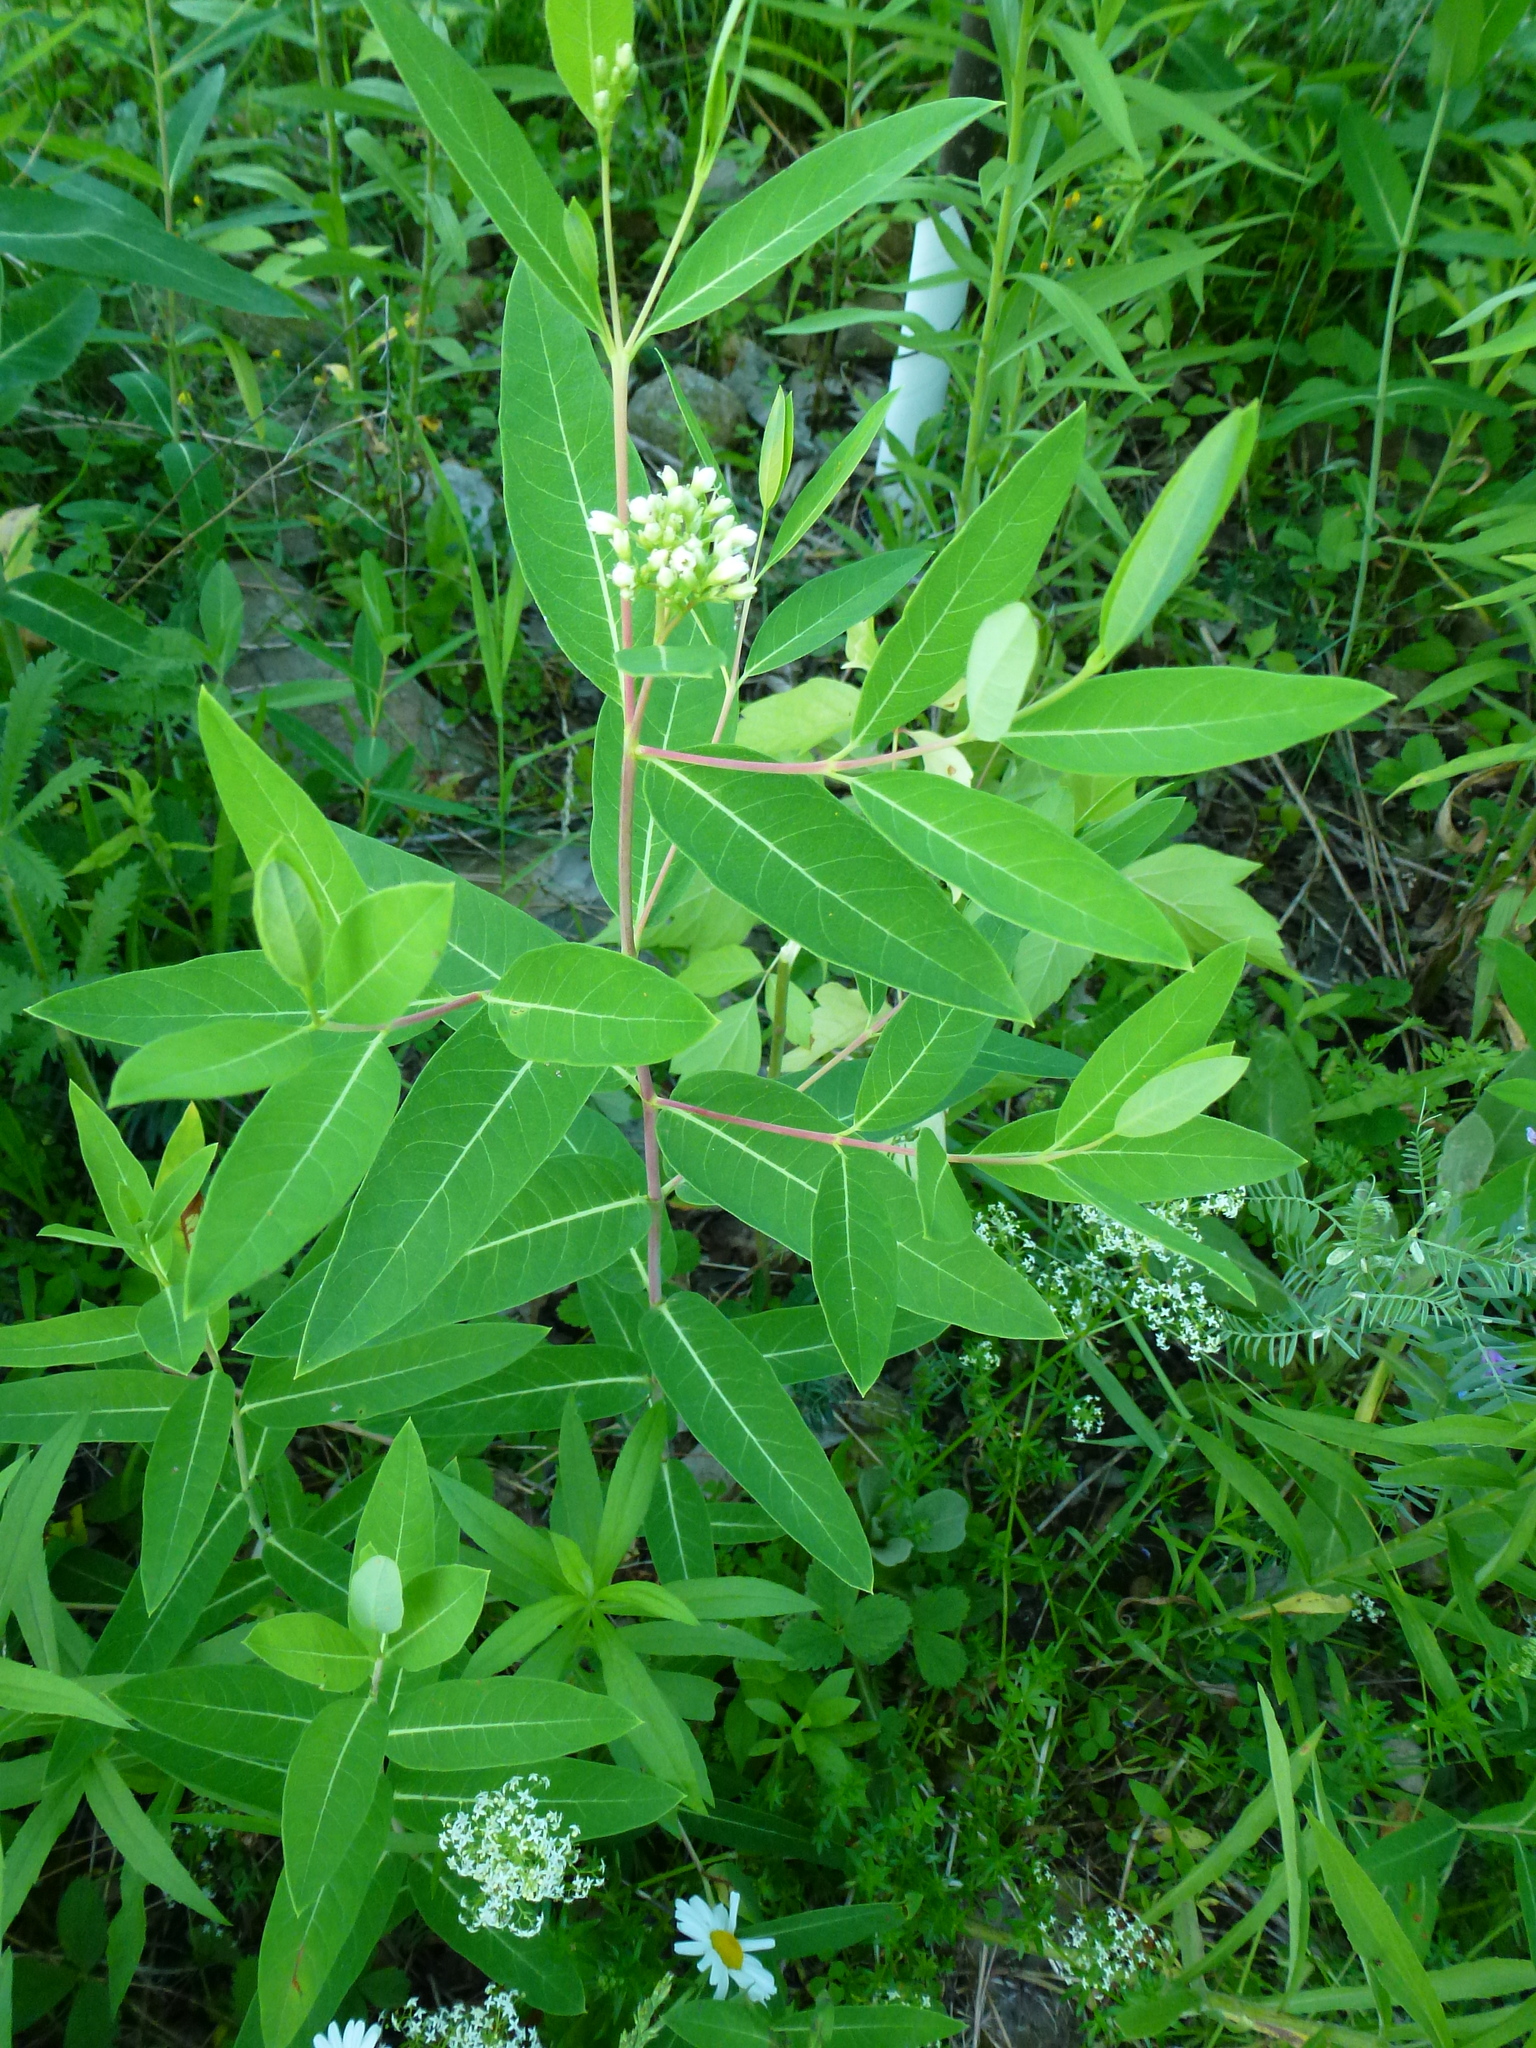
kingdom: Plantae
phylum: Tracheophyta
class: Magnoliopsida
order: Gentianales
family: Apocynaceae
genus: Apocynum
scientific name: Apocynum cannabinum
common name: Hemp dogbane
